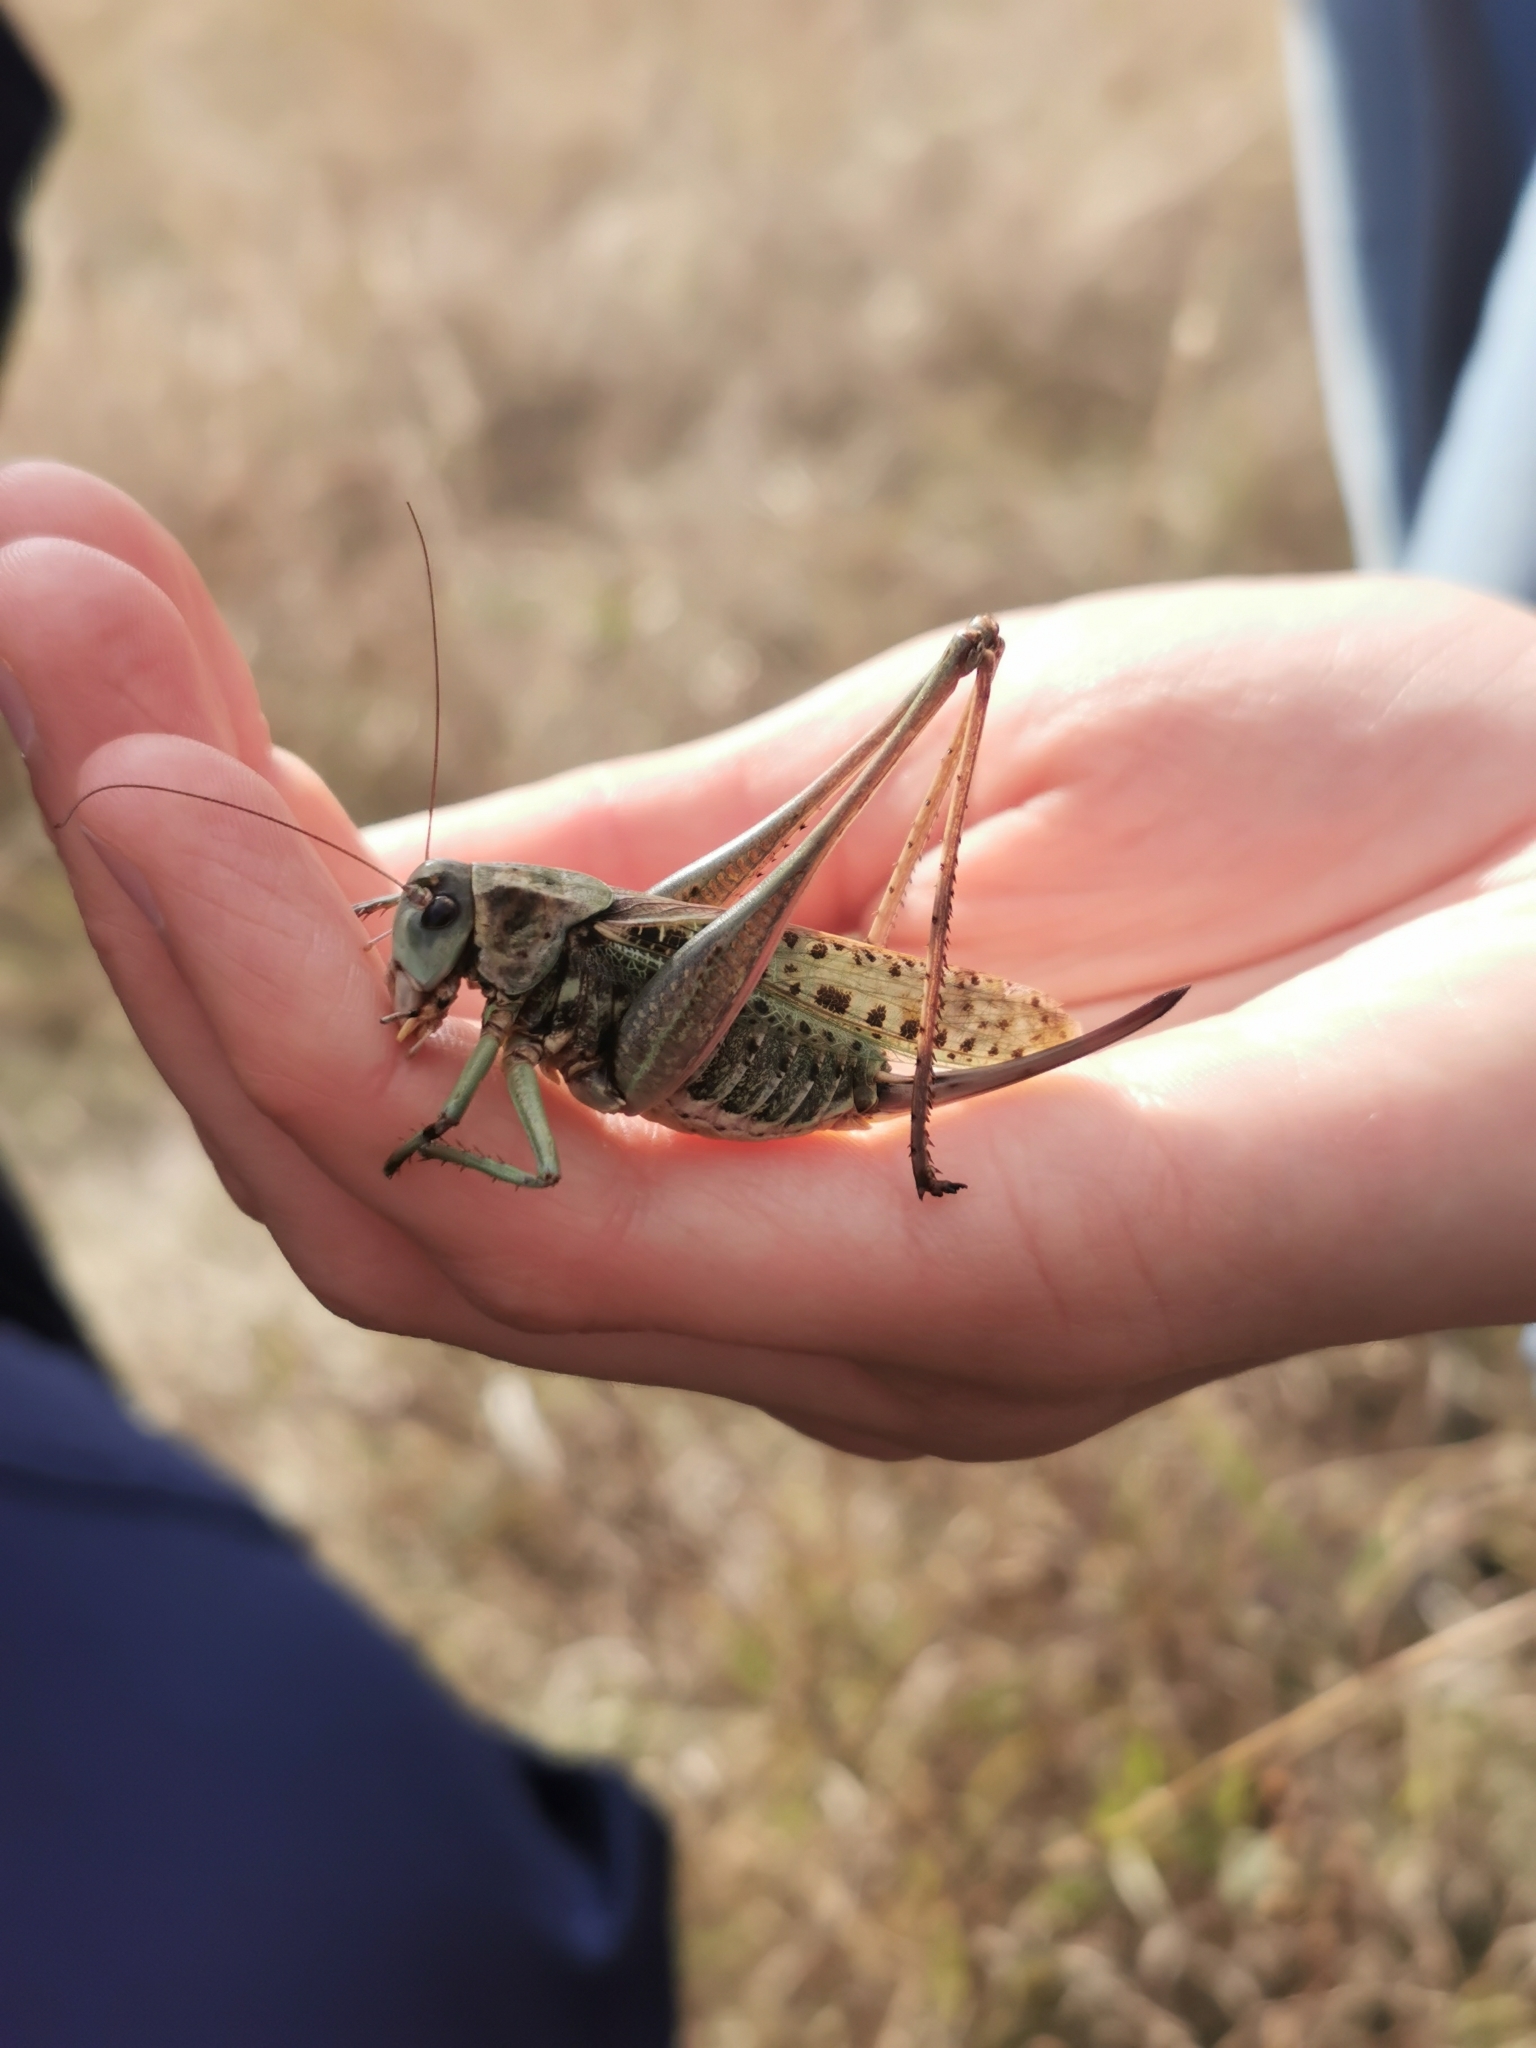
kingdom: Animalia
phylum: Arthropoda
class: Insecta
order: Orthoptera
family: Tettigoniidae
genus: Decticus
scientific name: Decticus verrucivorus
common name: Wart-biter
